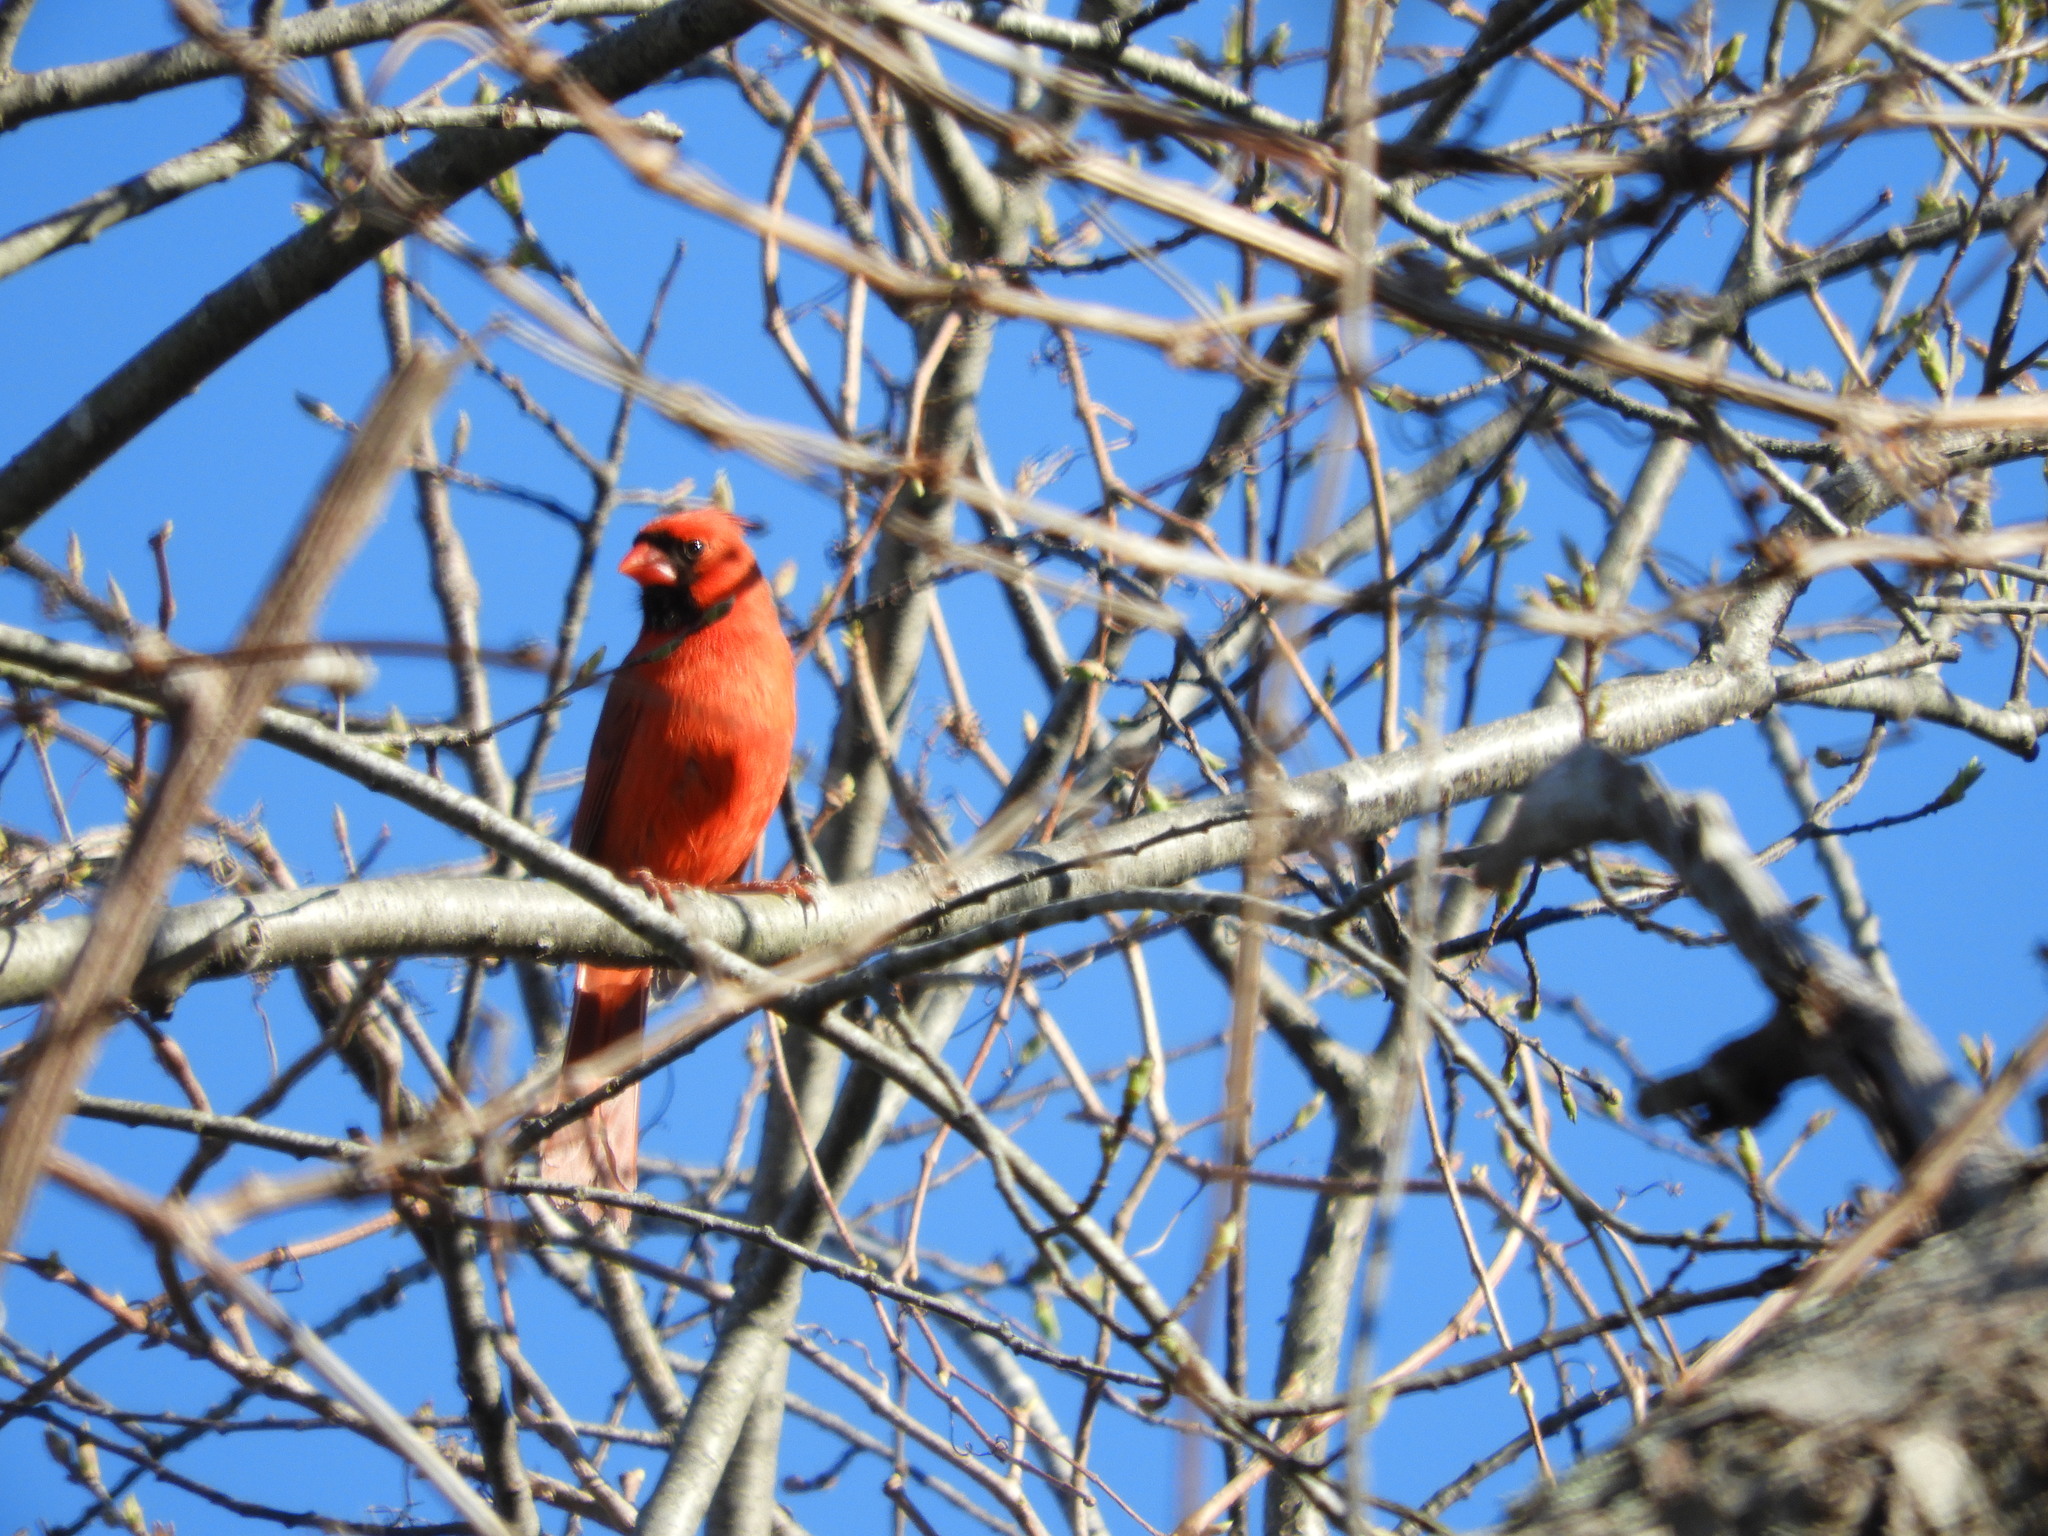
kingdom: Animalia
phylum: Chordata
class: Aves
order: Passeriformes
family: Cardinalidae
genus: Cardinalis
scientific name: Cardinalis cardinalis
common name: Northern cardinal
